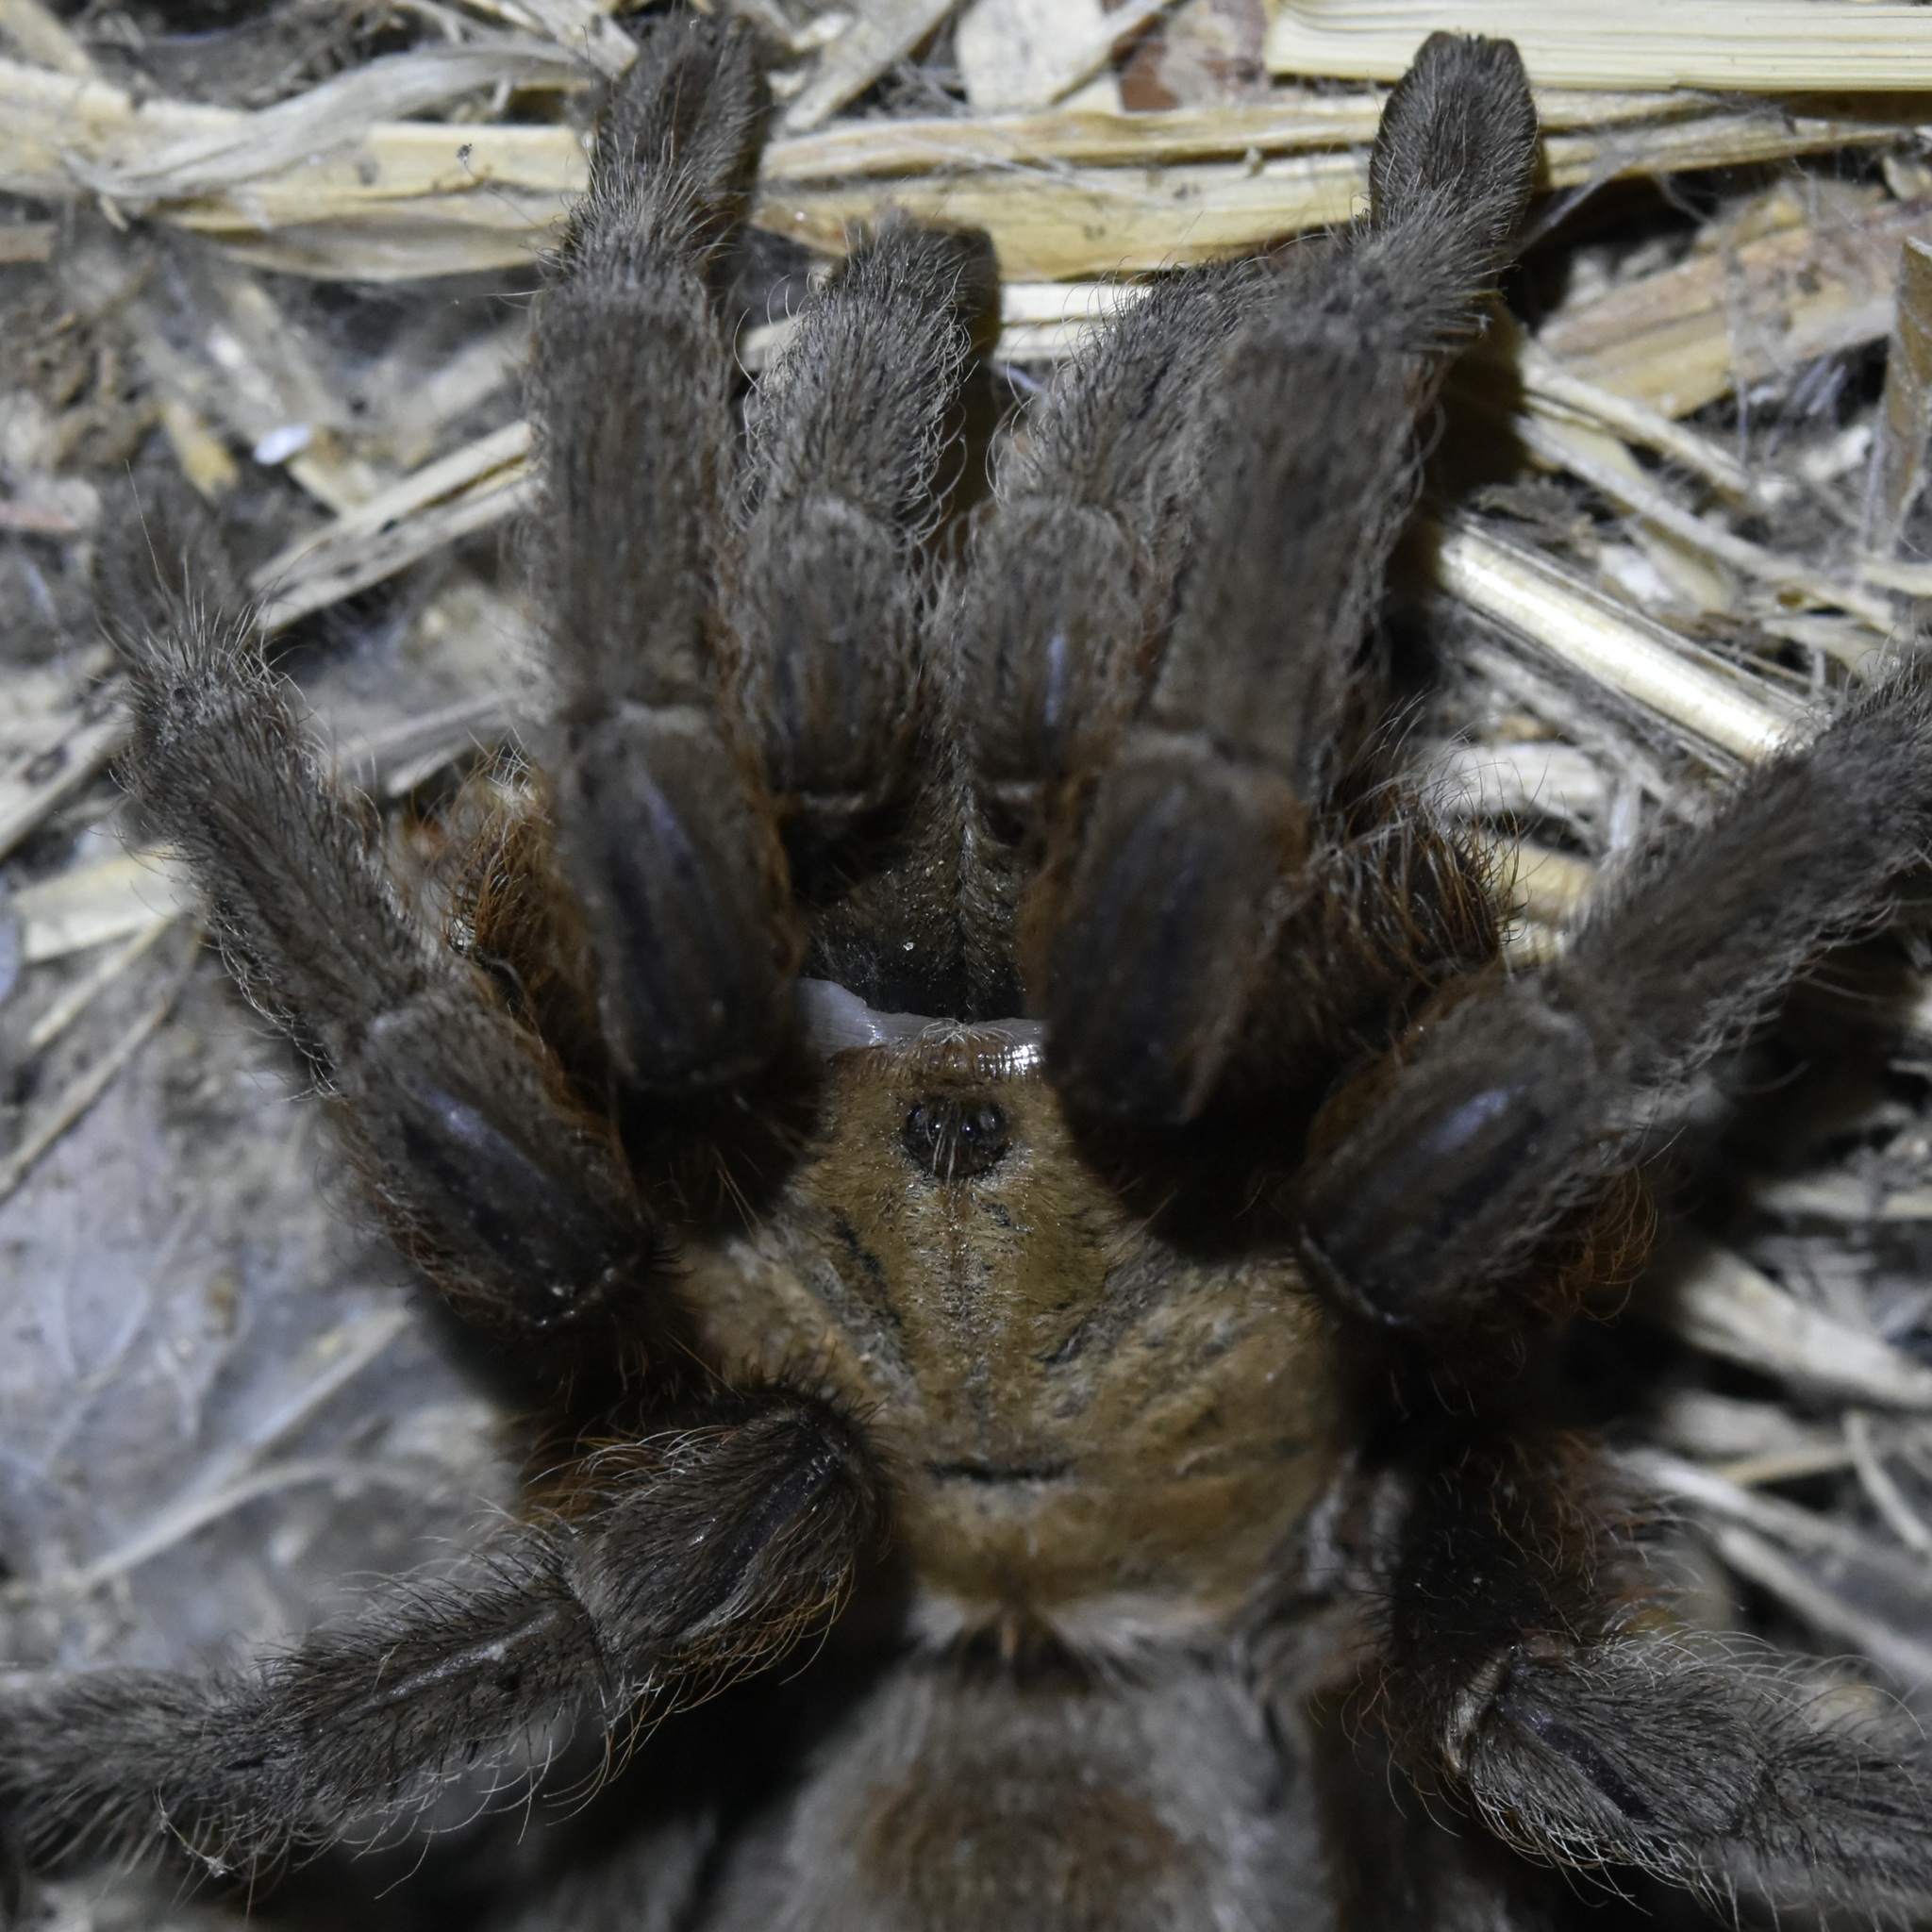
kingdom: Animalia
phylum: Arthropoda
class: Arachnida
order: Araneae
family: Theraphosidae
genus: Aphonopelma
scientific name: Aphonopelma hentzi
